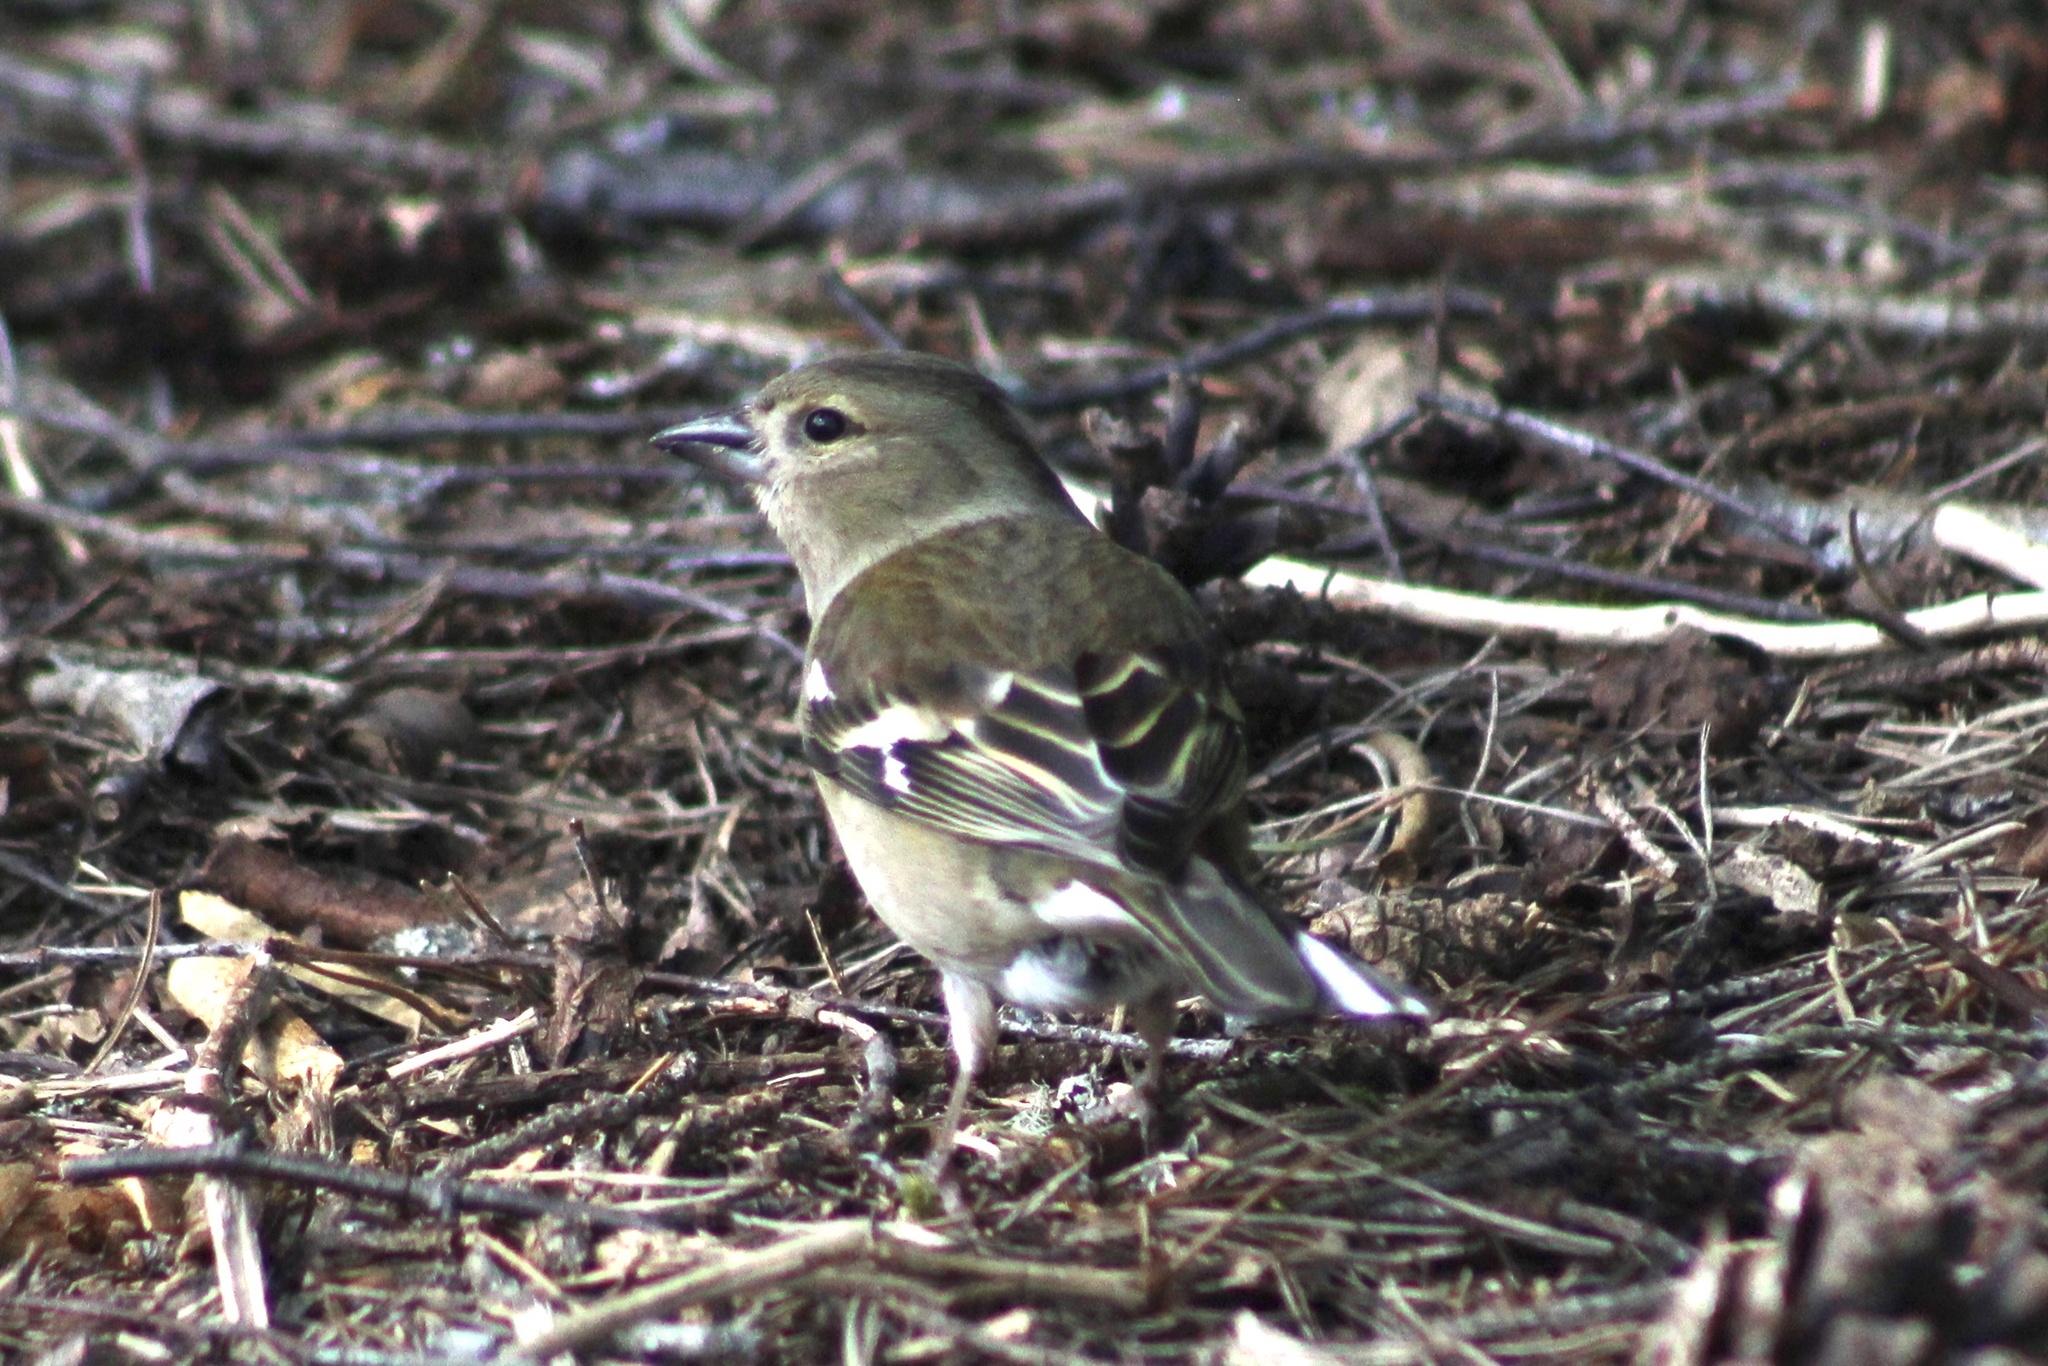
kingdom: Animalia
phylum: Chordata
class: Aves
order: Passeriformes
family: Fringillidae
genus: Fringilla
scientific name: Fringilla coelebs
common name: Common chaffinch
